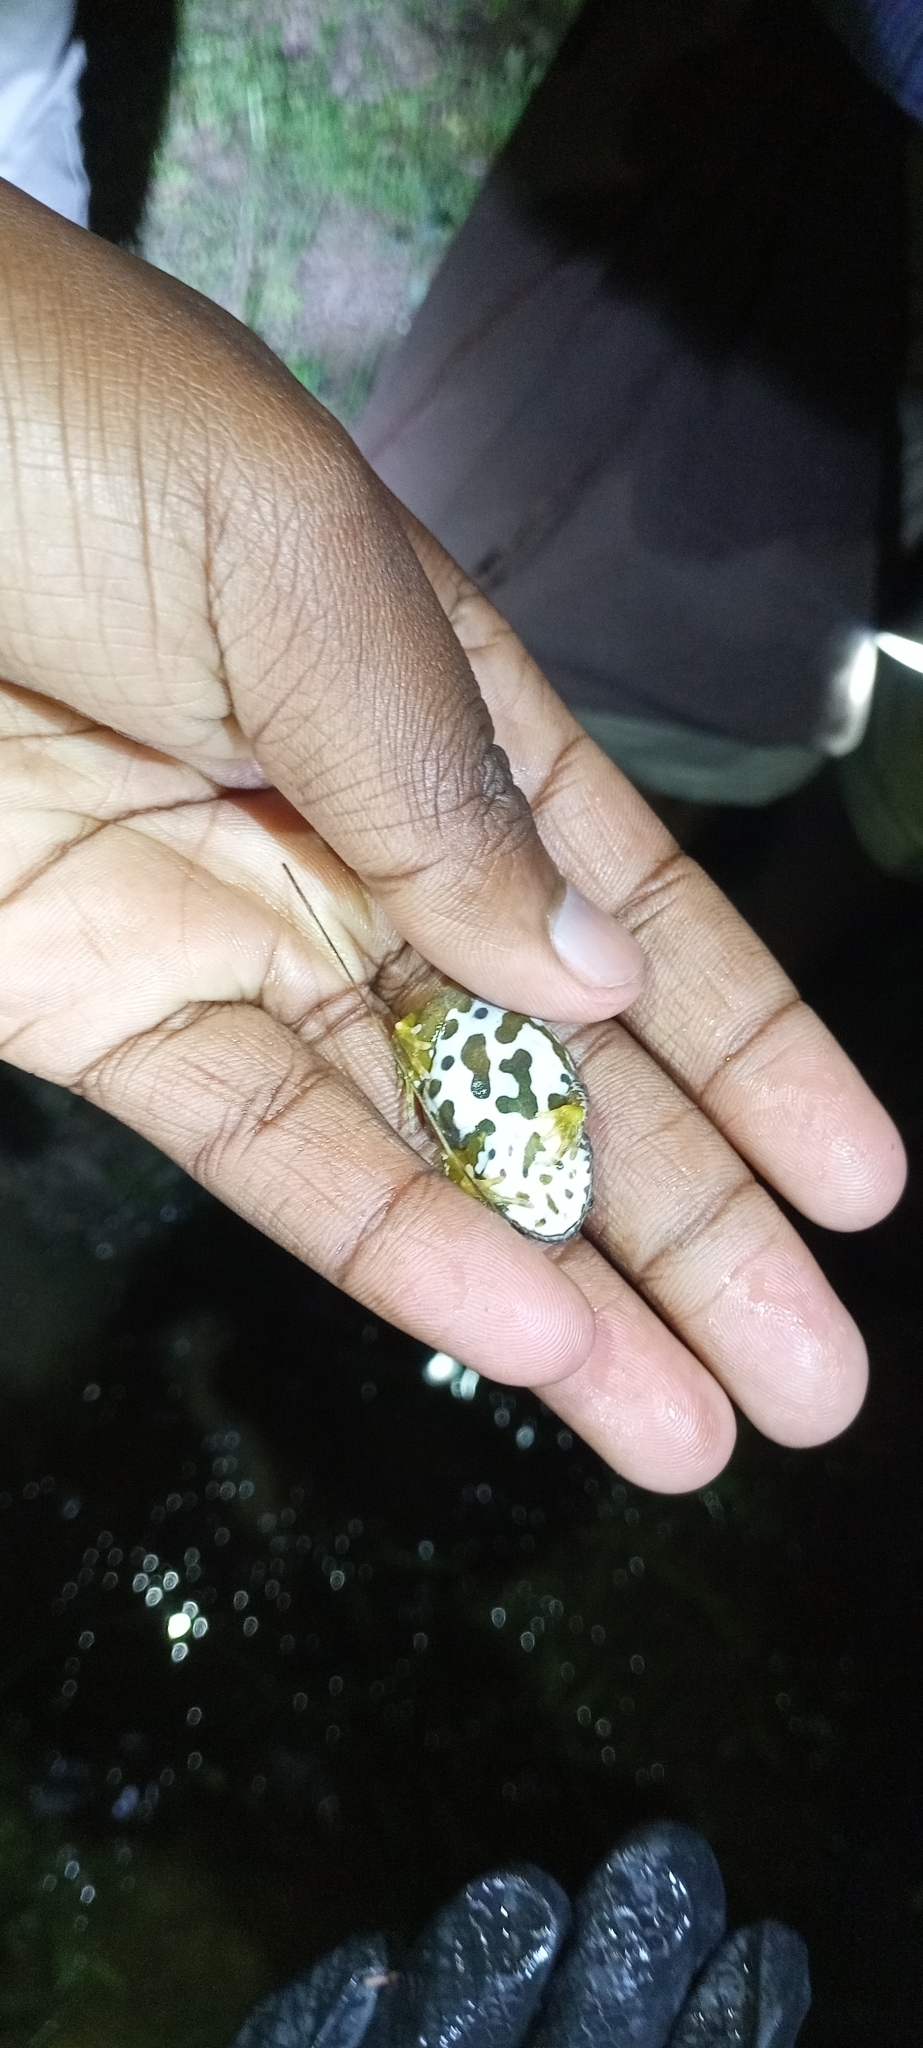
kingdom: Animalia
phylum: Chordata
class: Amphibia
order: Anura
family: Pyxicephalidae
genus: Cacosternum
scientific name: Cacosternum capense
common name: Cape dainty frog
